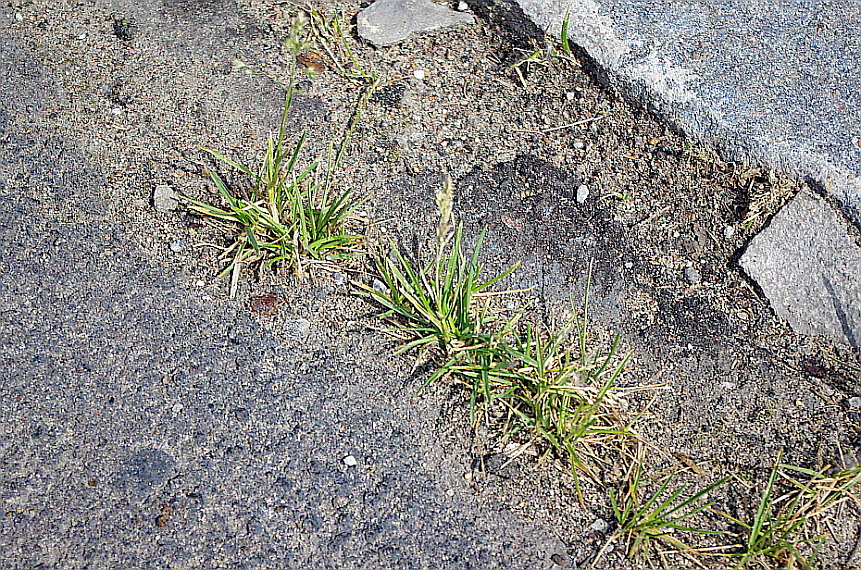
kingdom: Plantae
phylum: Tracheophyta
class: Liliopsida
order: Poales
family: Poaceae
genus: Poa
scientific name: Poa annua
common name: Annual bluegrass
